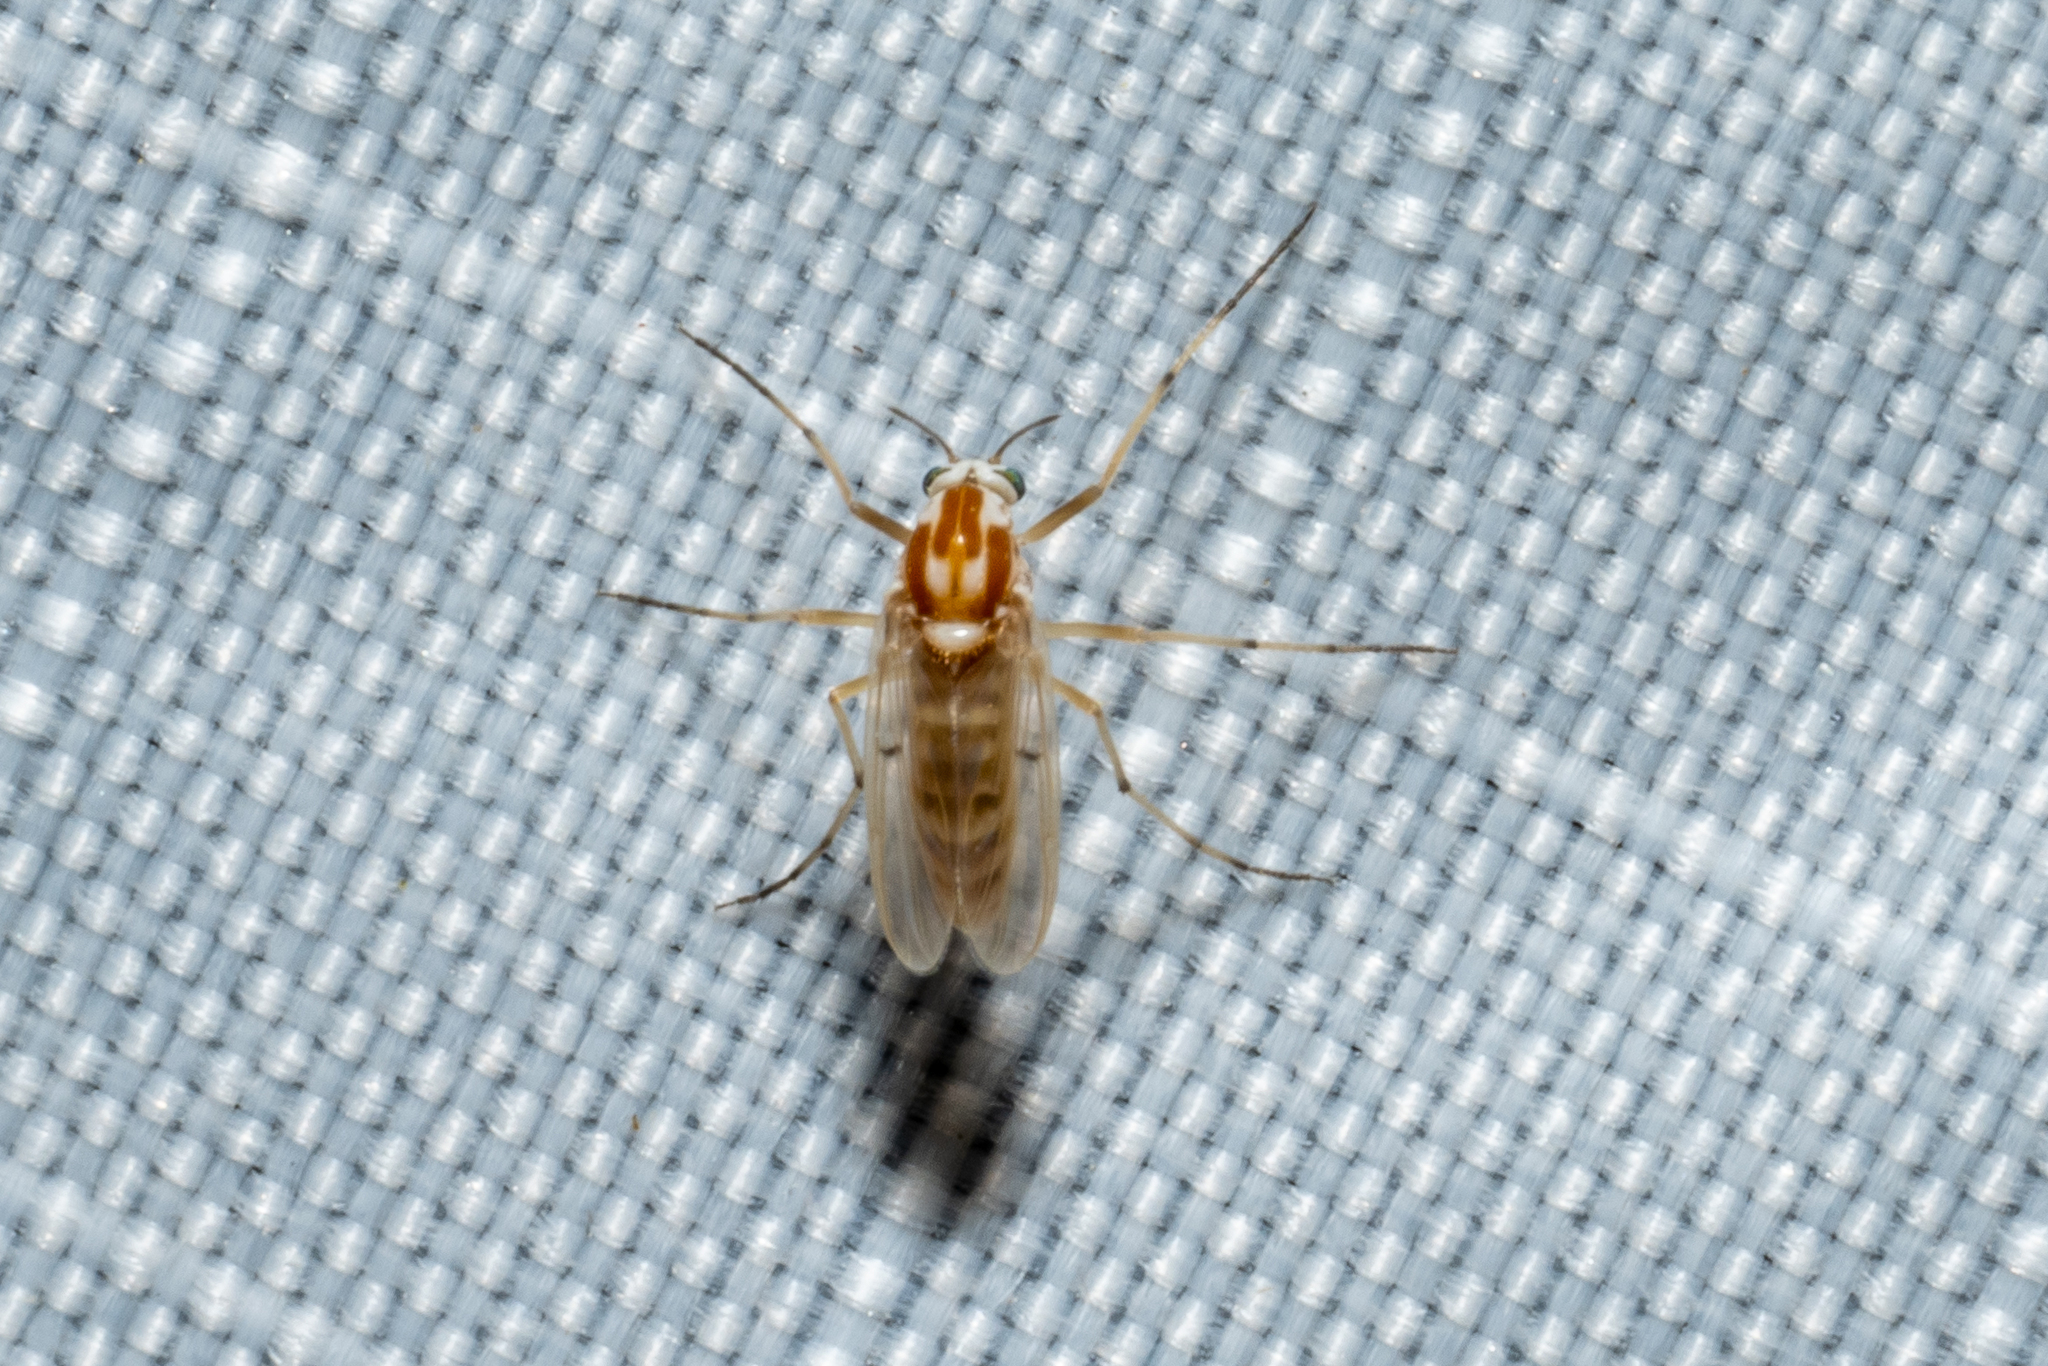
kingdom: Animalia
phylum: Arthropoda
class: Insecta
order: Diptera
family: Chironomidae
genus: Procladius
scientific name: Procladius bellus
